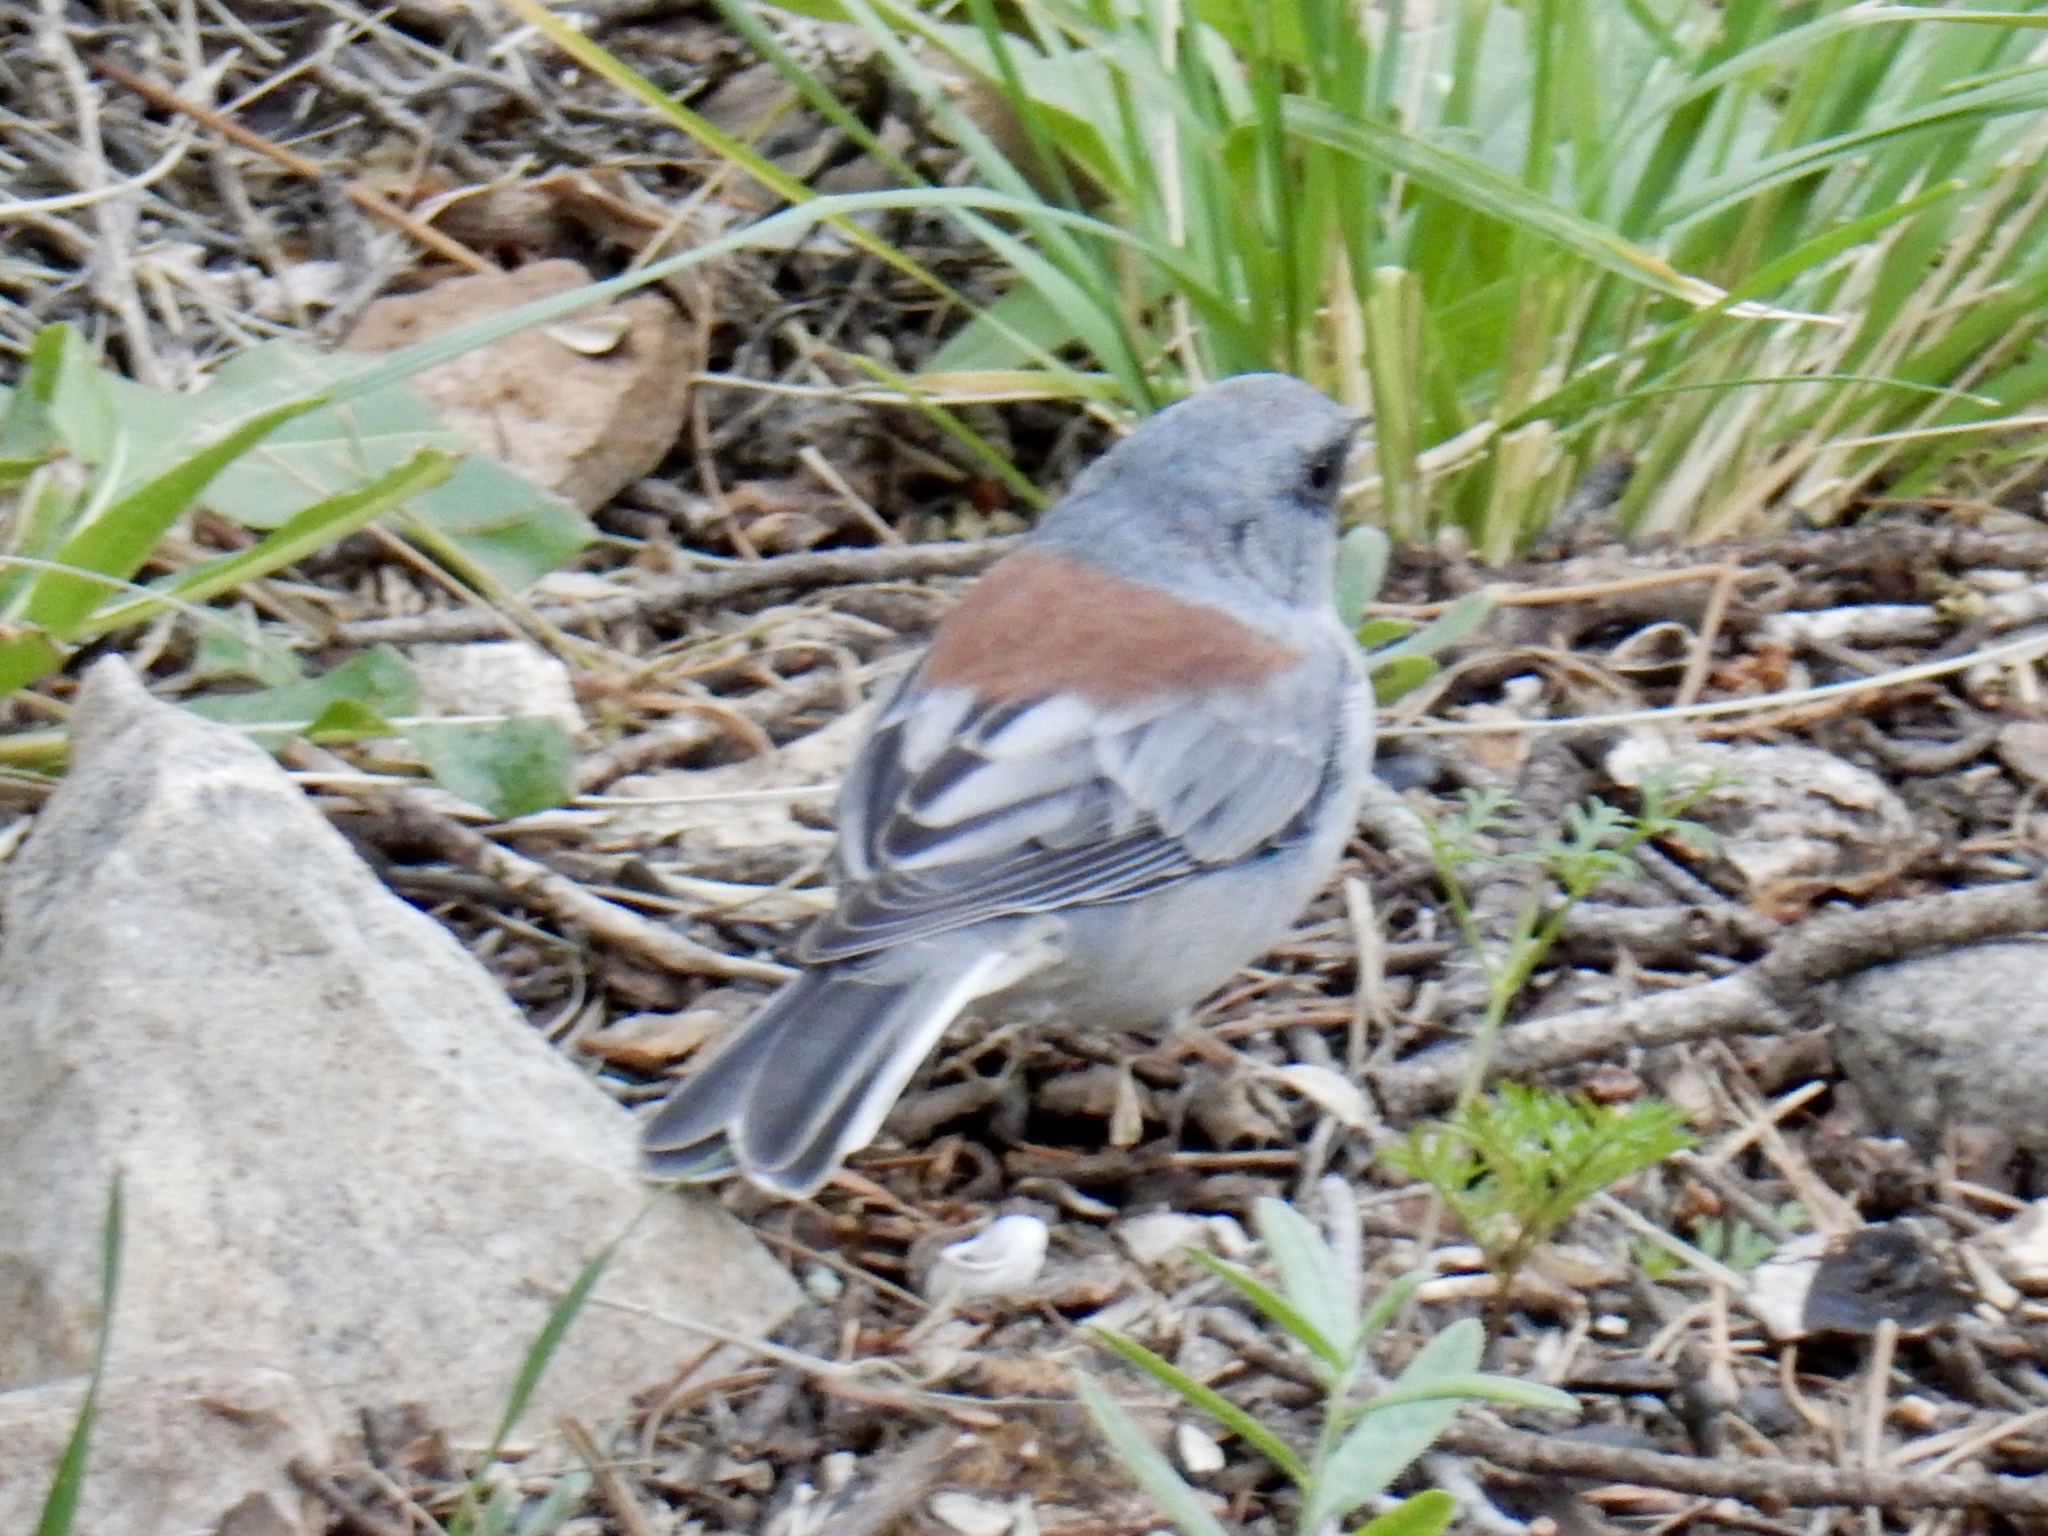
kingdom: Animalia
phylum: Chordata
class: Aves
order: Passeriformes
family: Passerellidae
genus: Junco
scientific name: Junco hyemalis
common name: Dark-eyed junco
